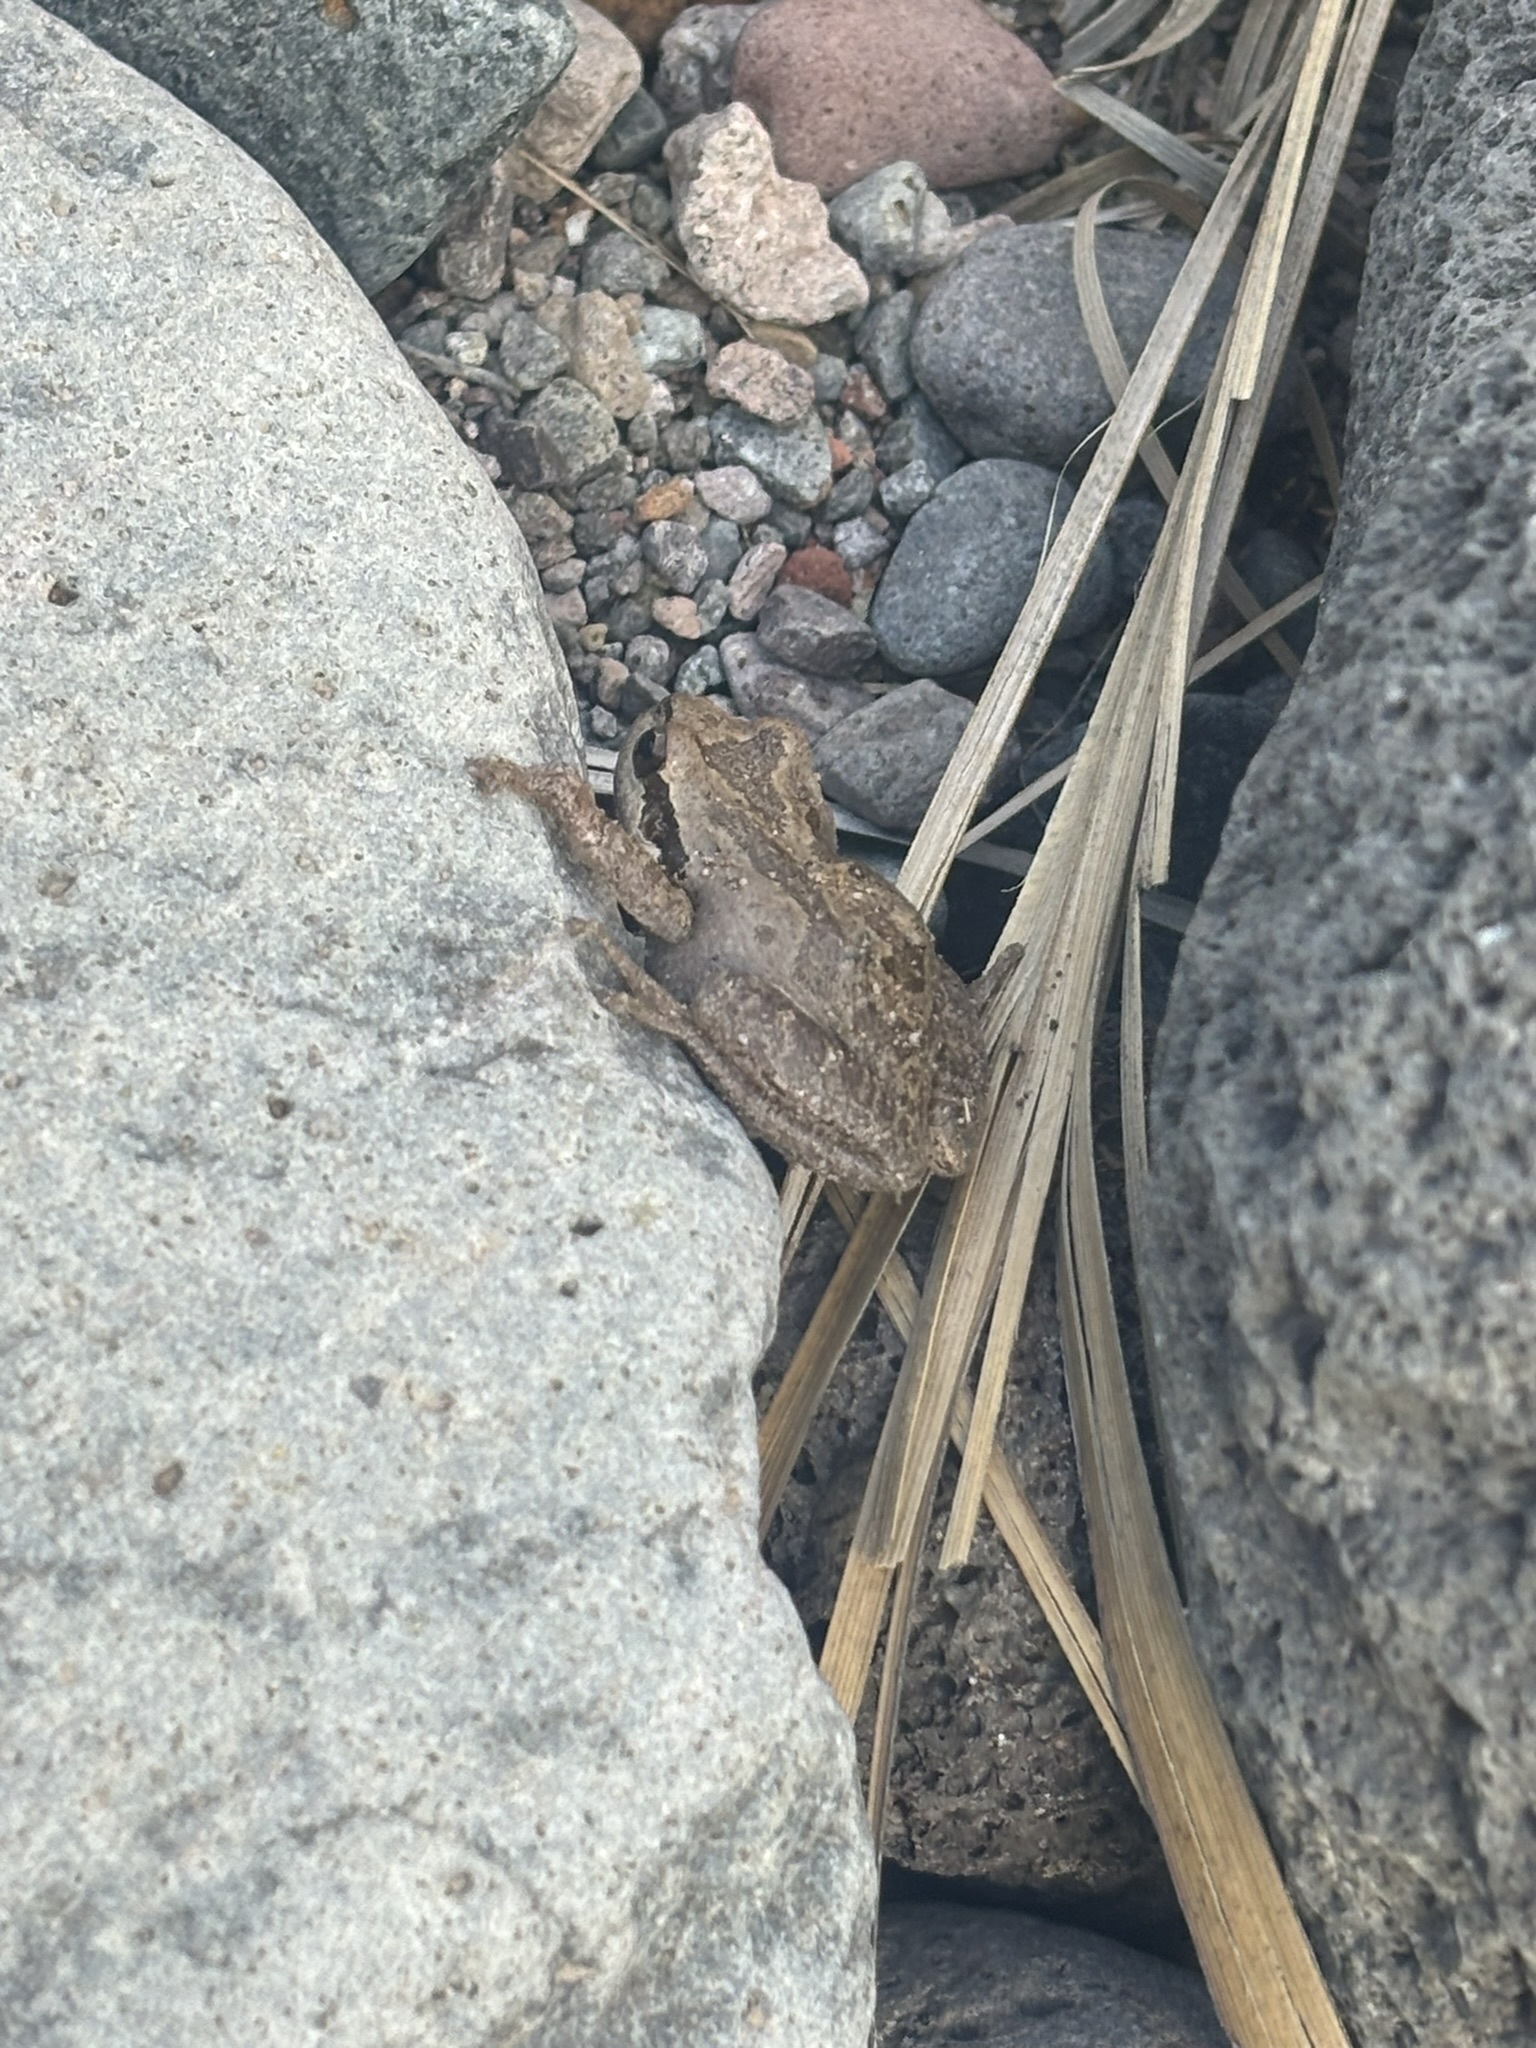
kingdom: Animalia
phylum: Chordata
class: Amphibia
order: Anura
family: Hylidae
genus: Pseudacris
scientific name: Pseudacris regilla
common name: Pacific chorus frog
